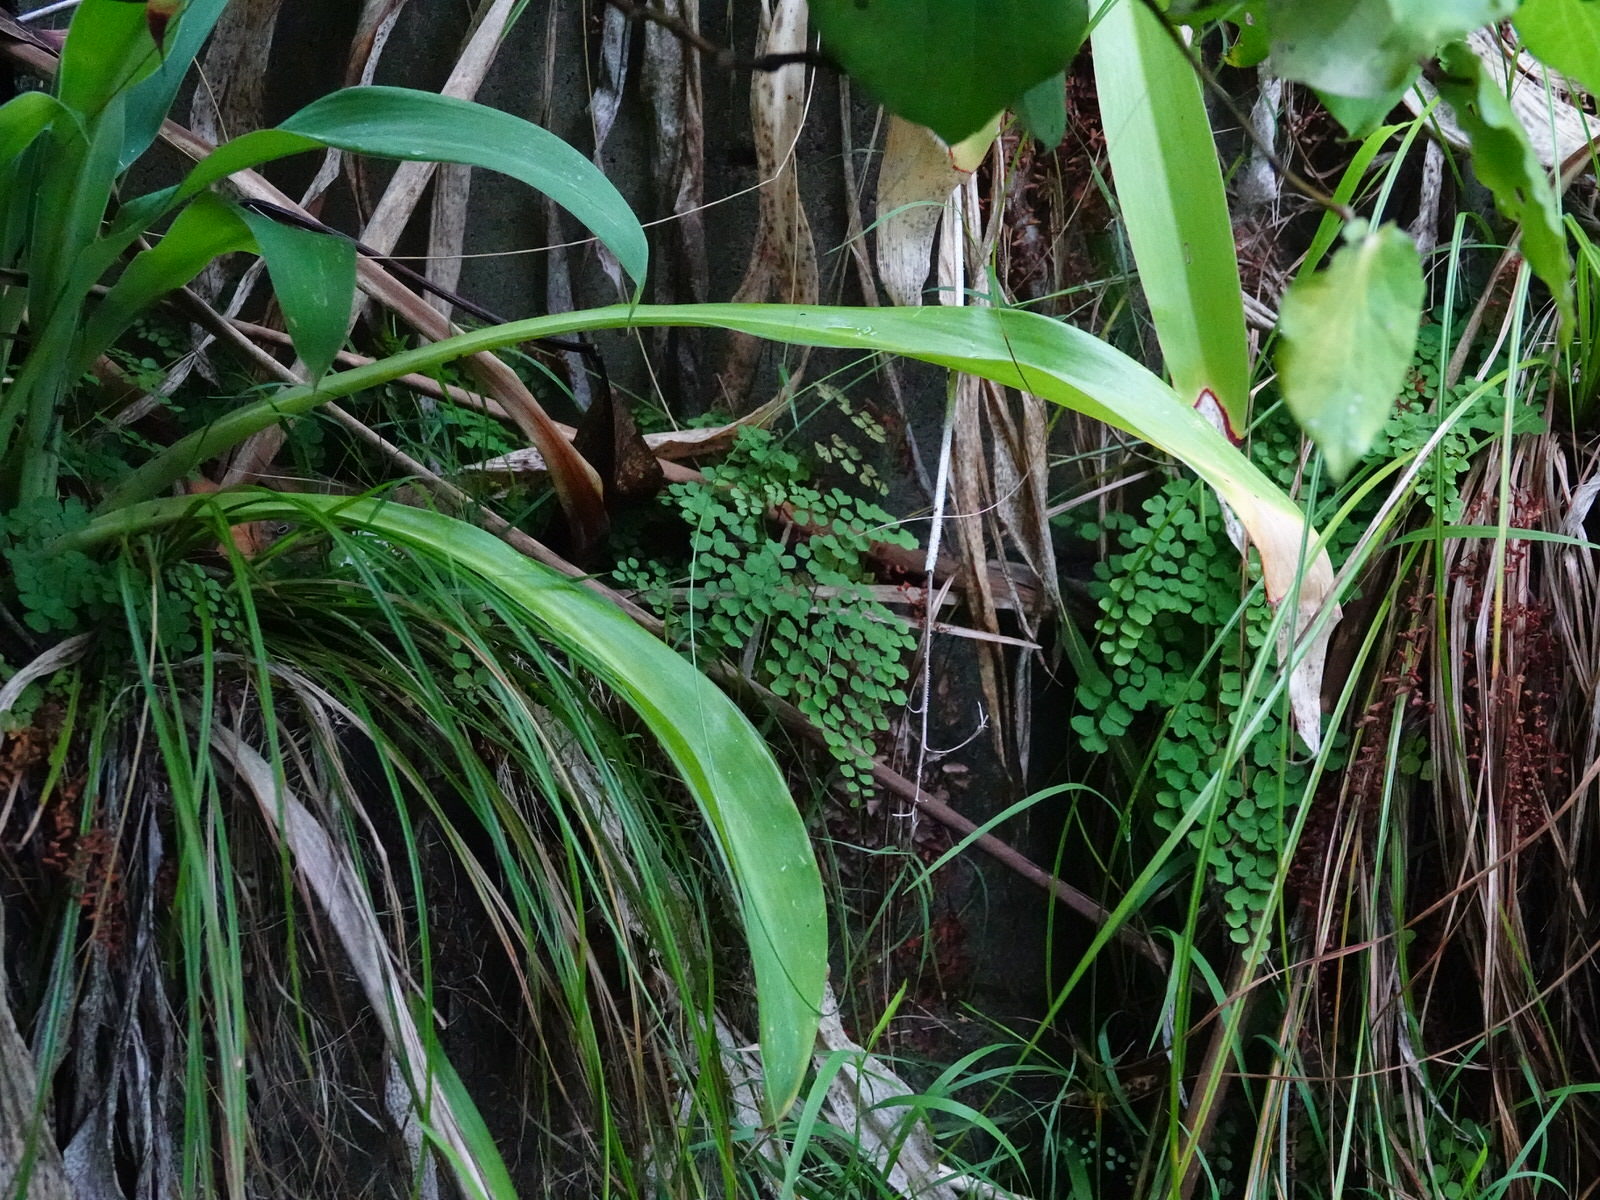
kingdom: Plantae
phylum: Tracheophyta
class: Polypodiopsida
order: Polypodiales
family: Pteridaceae
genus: Adiantum
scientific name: Adiantum aethiopicum
